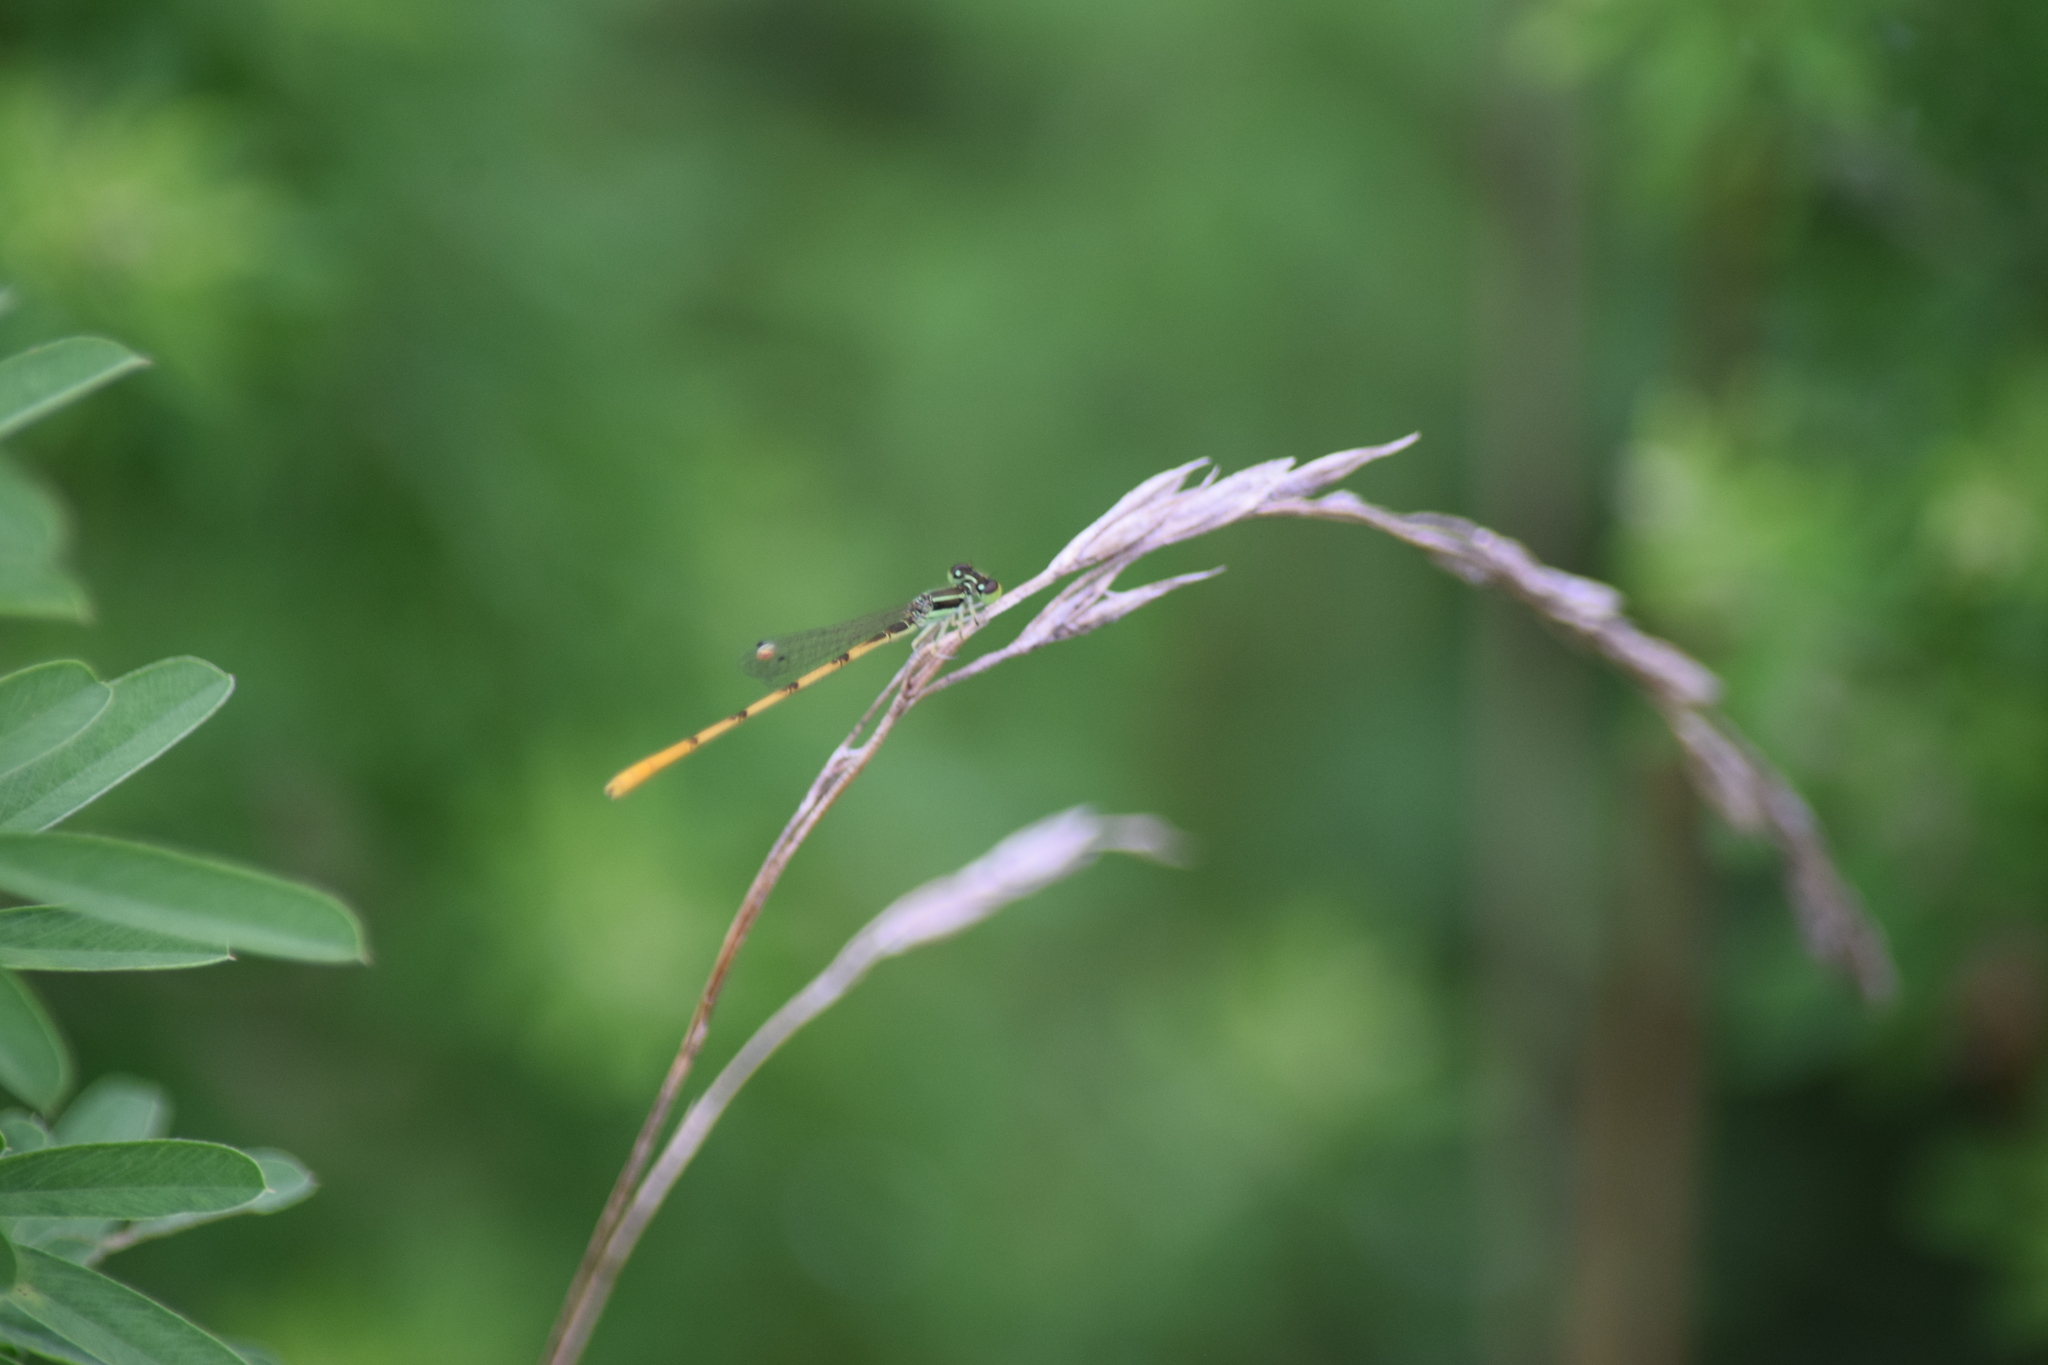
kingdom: Animalia
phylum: Arthropoda
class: Insecta
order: Odonata
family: Coenagrionidae
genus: Ischnura
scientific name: Ischnura hastata
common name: Citrine forktail
